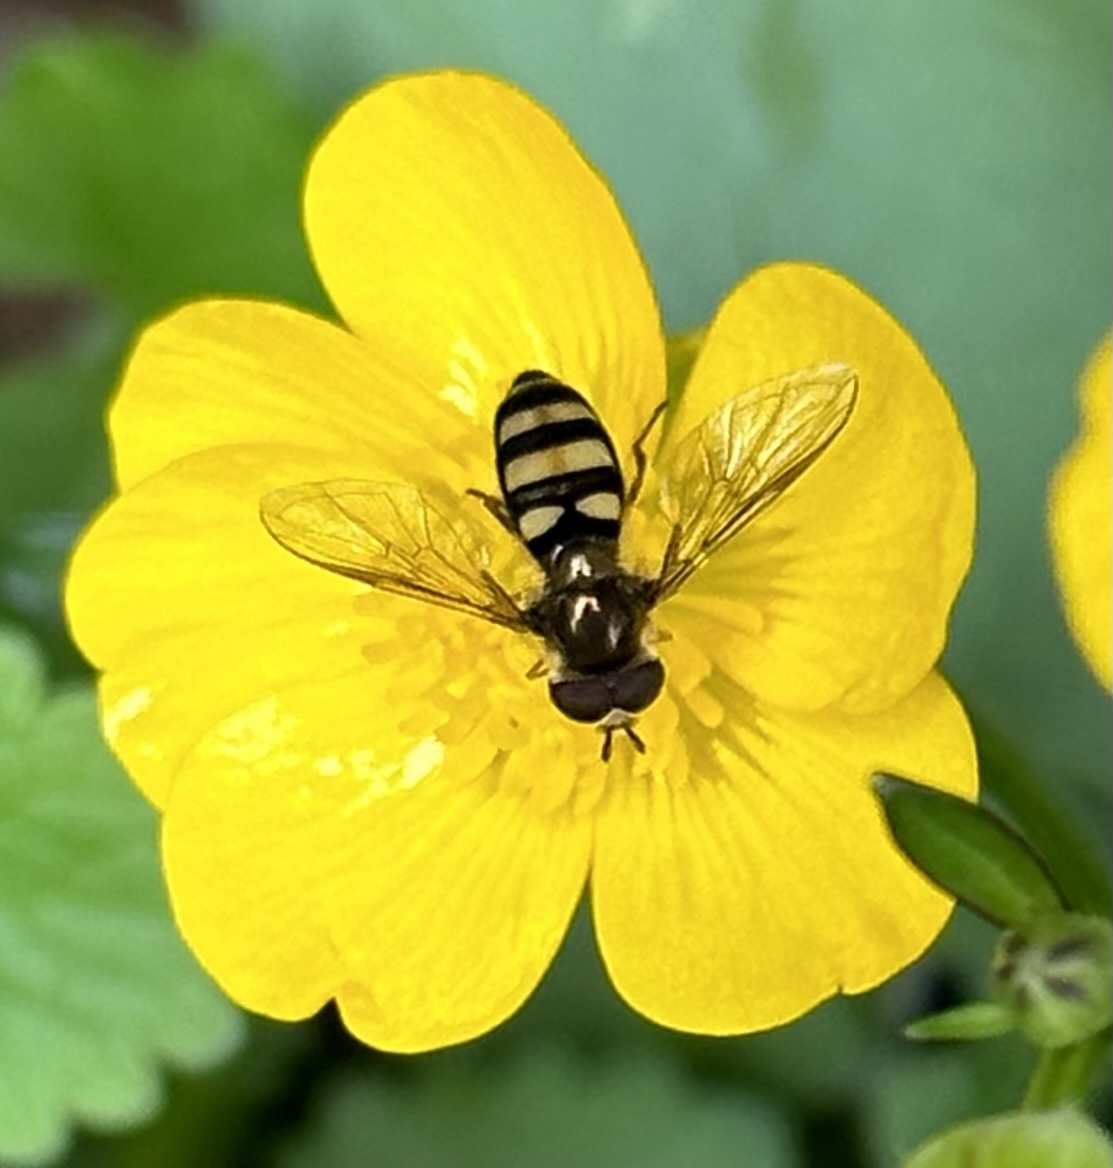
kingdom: Animalia
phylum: Arthropoda
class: Insecta
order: Diptera
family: Syrphidae
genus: Eupeodes
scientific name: Eupeodes
